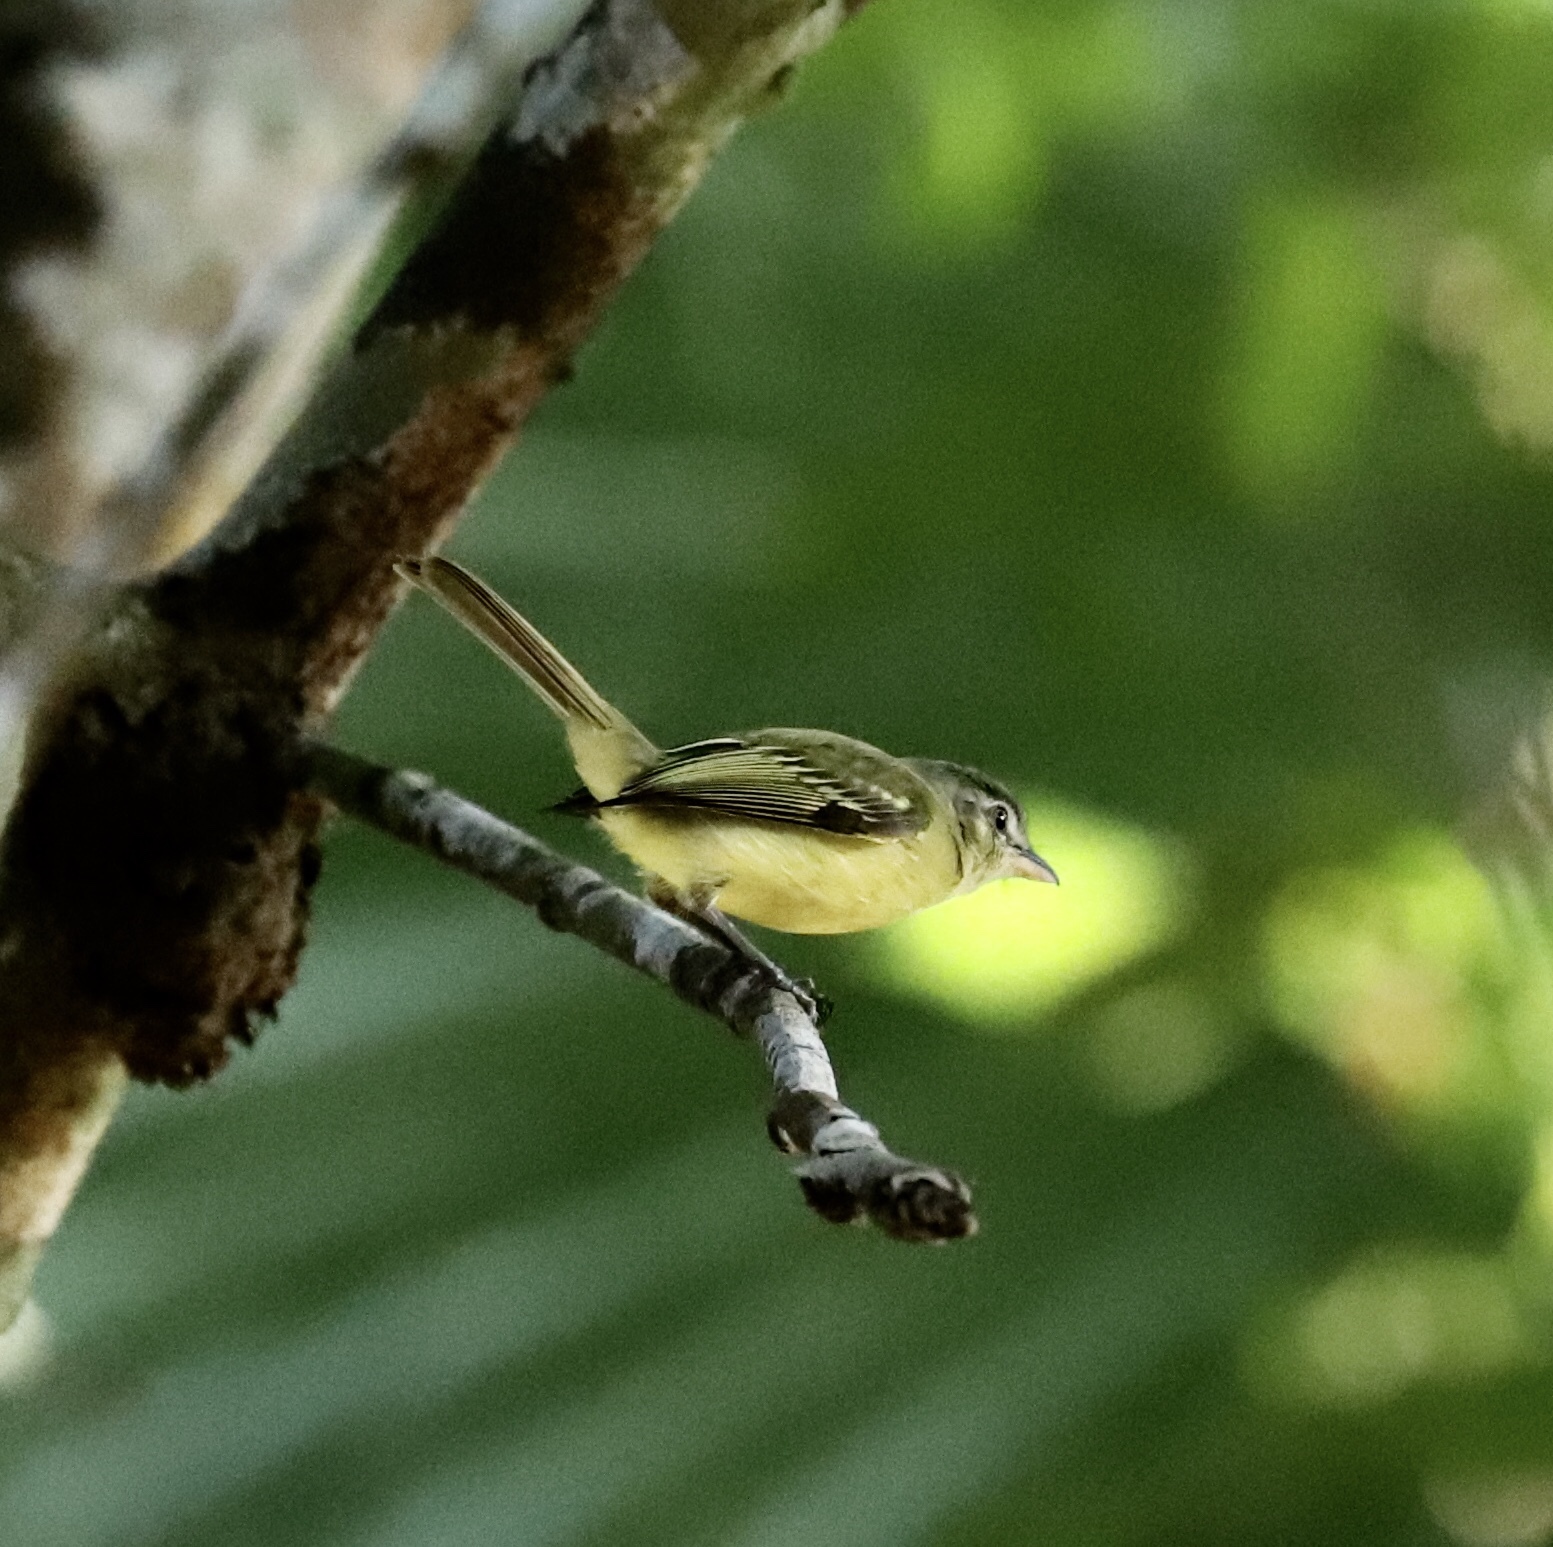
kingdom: Animalia
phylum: Chordata
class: Aves
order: Passeriformes
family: Tyrannidae
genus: Tolmomyias
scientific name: Tolmomyias sulphurescens
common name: Yellow-olive flycatcher
